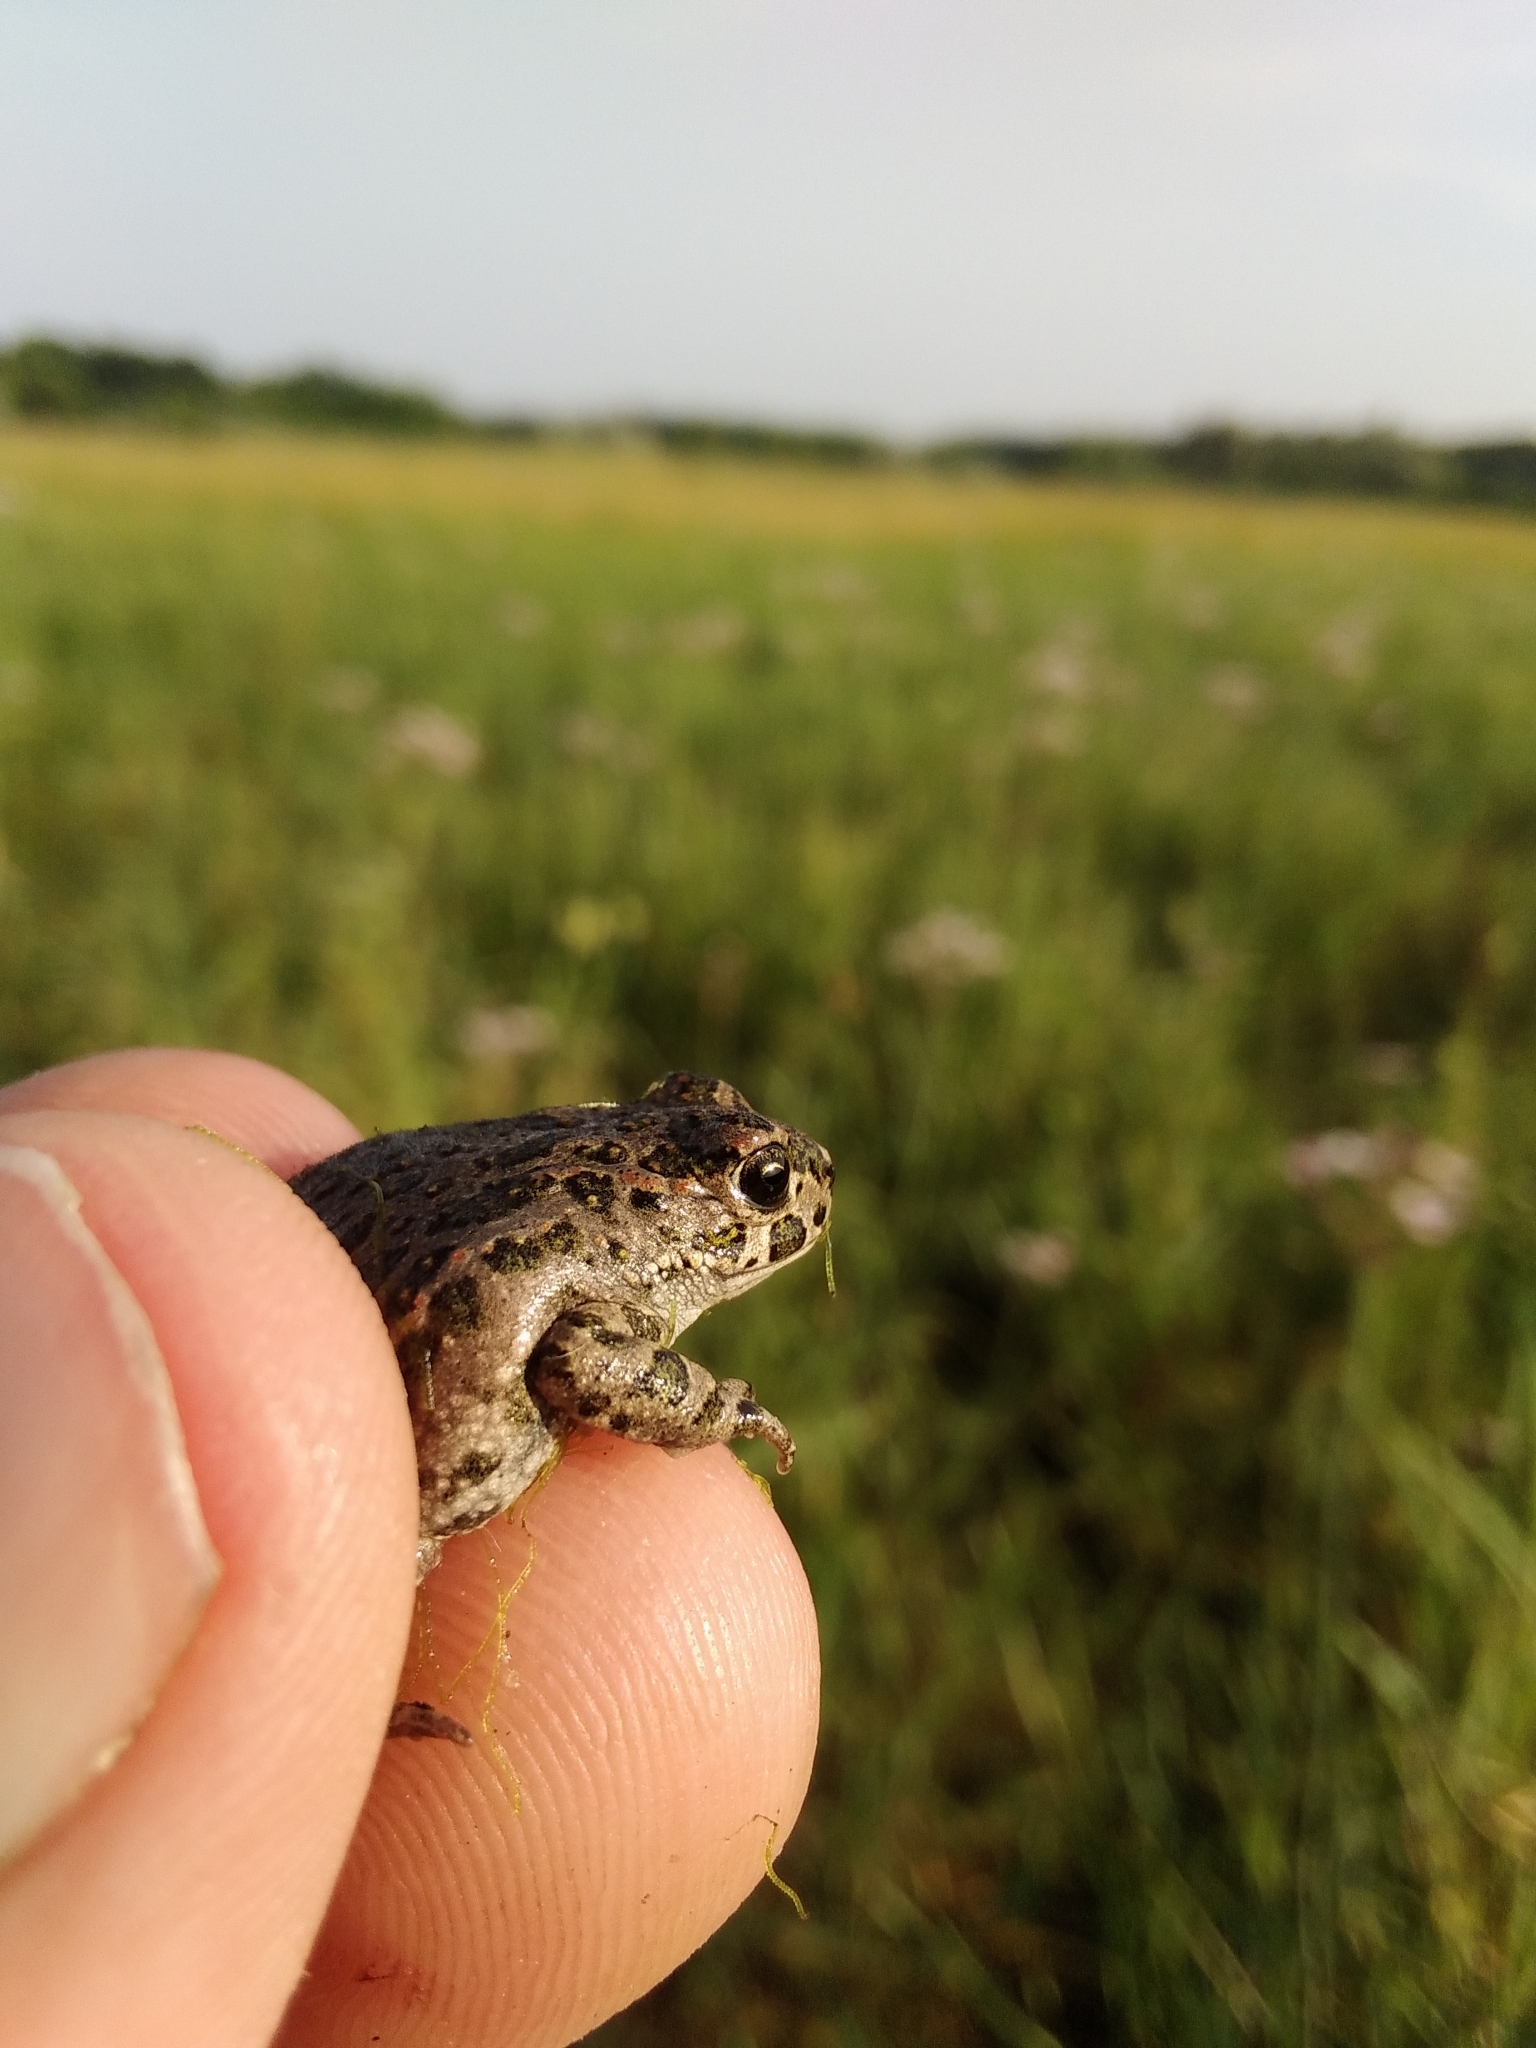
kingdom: Animalia
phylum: Chordata
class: Amphibia
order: Anura
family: Bufonidae
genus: Bufotes
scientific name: Bufotes viridis
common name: European green toad
